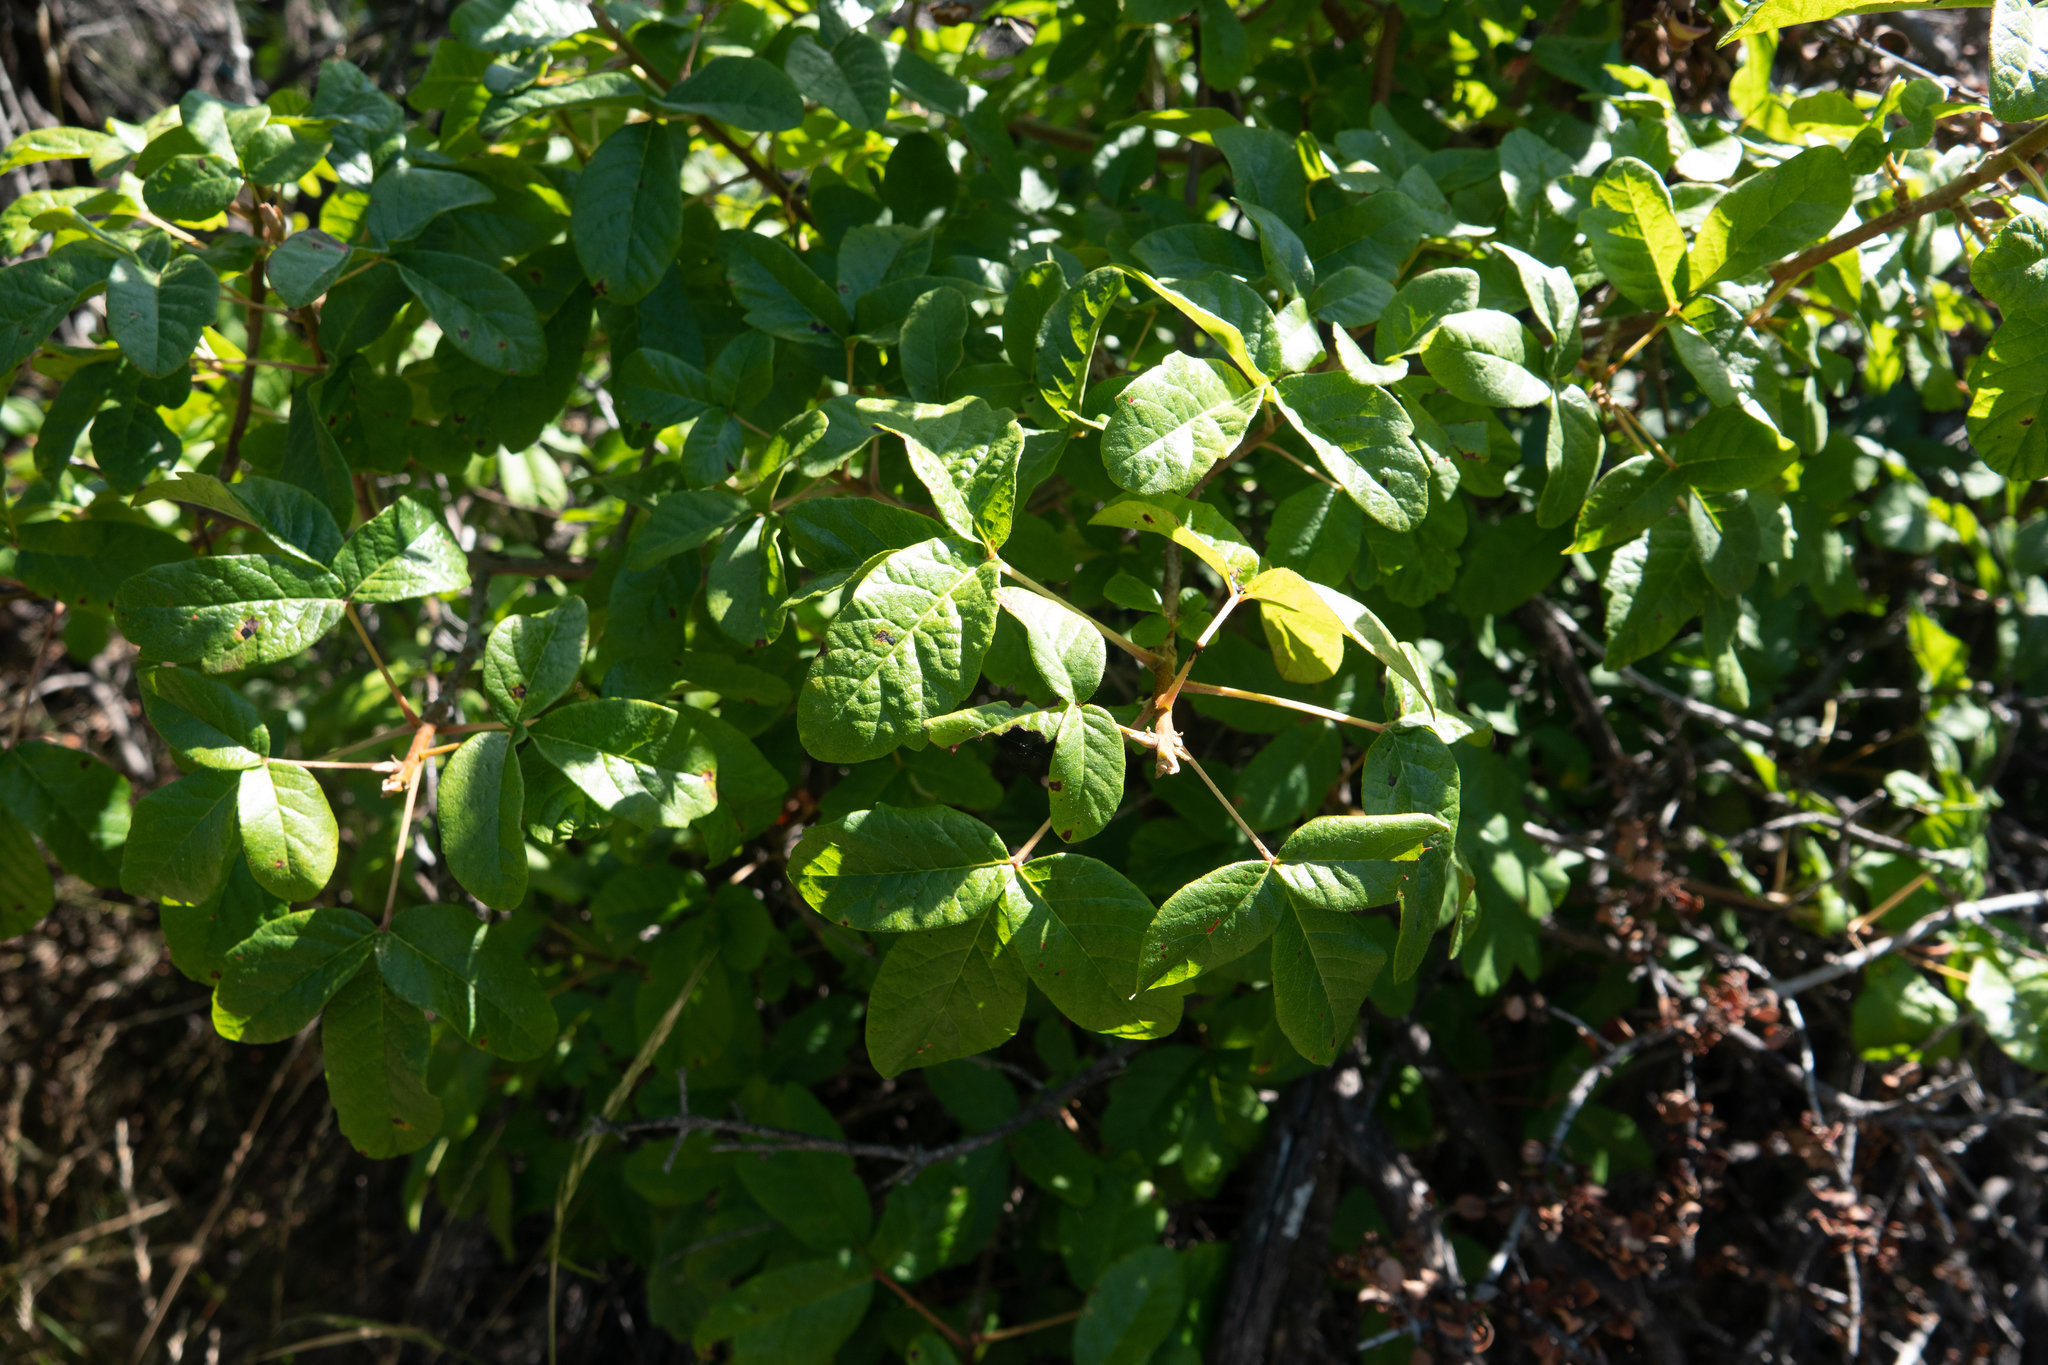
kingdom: Plantae
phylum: Tracheophyta
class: Magnoliopsida
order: Sapindales
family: Anacardiaceae
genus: Toxicodendron
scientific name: Toxicodendron diversilobum
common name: Pacific poison-oak
